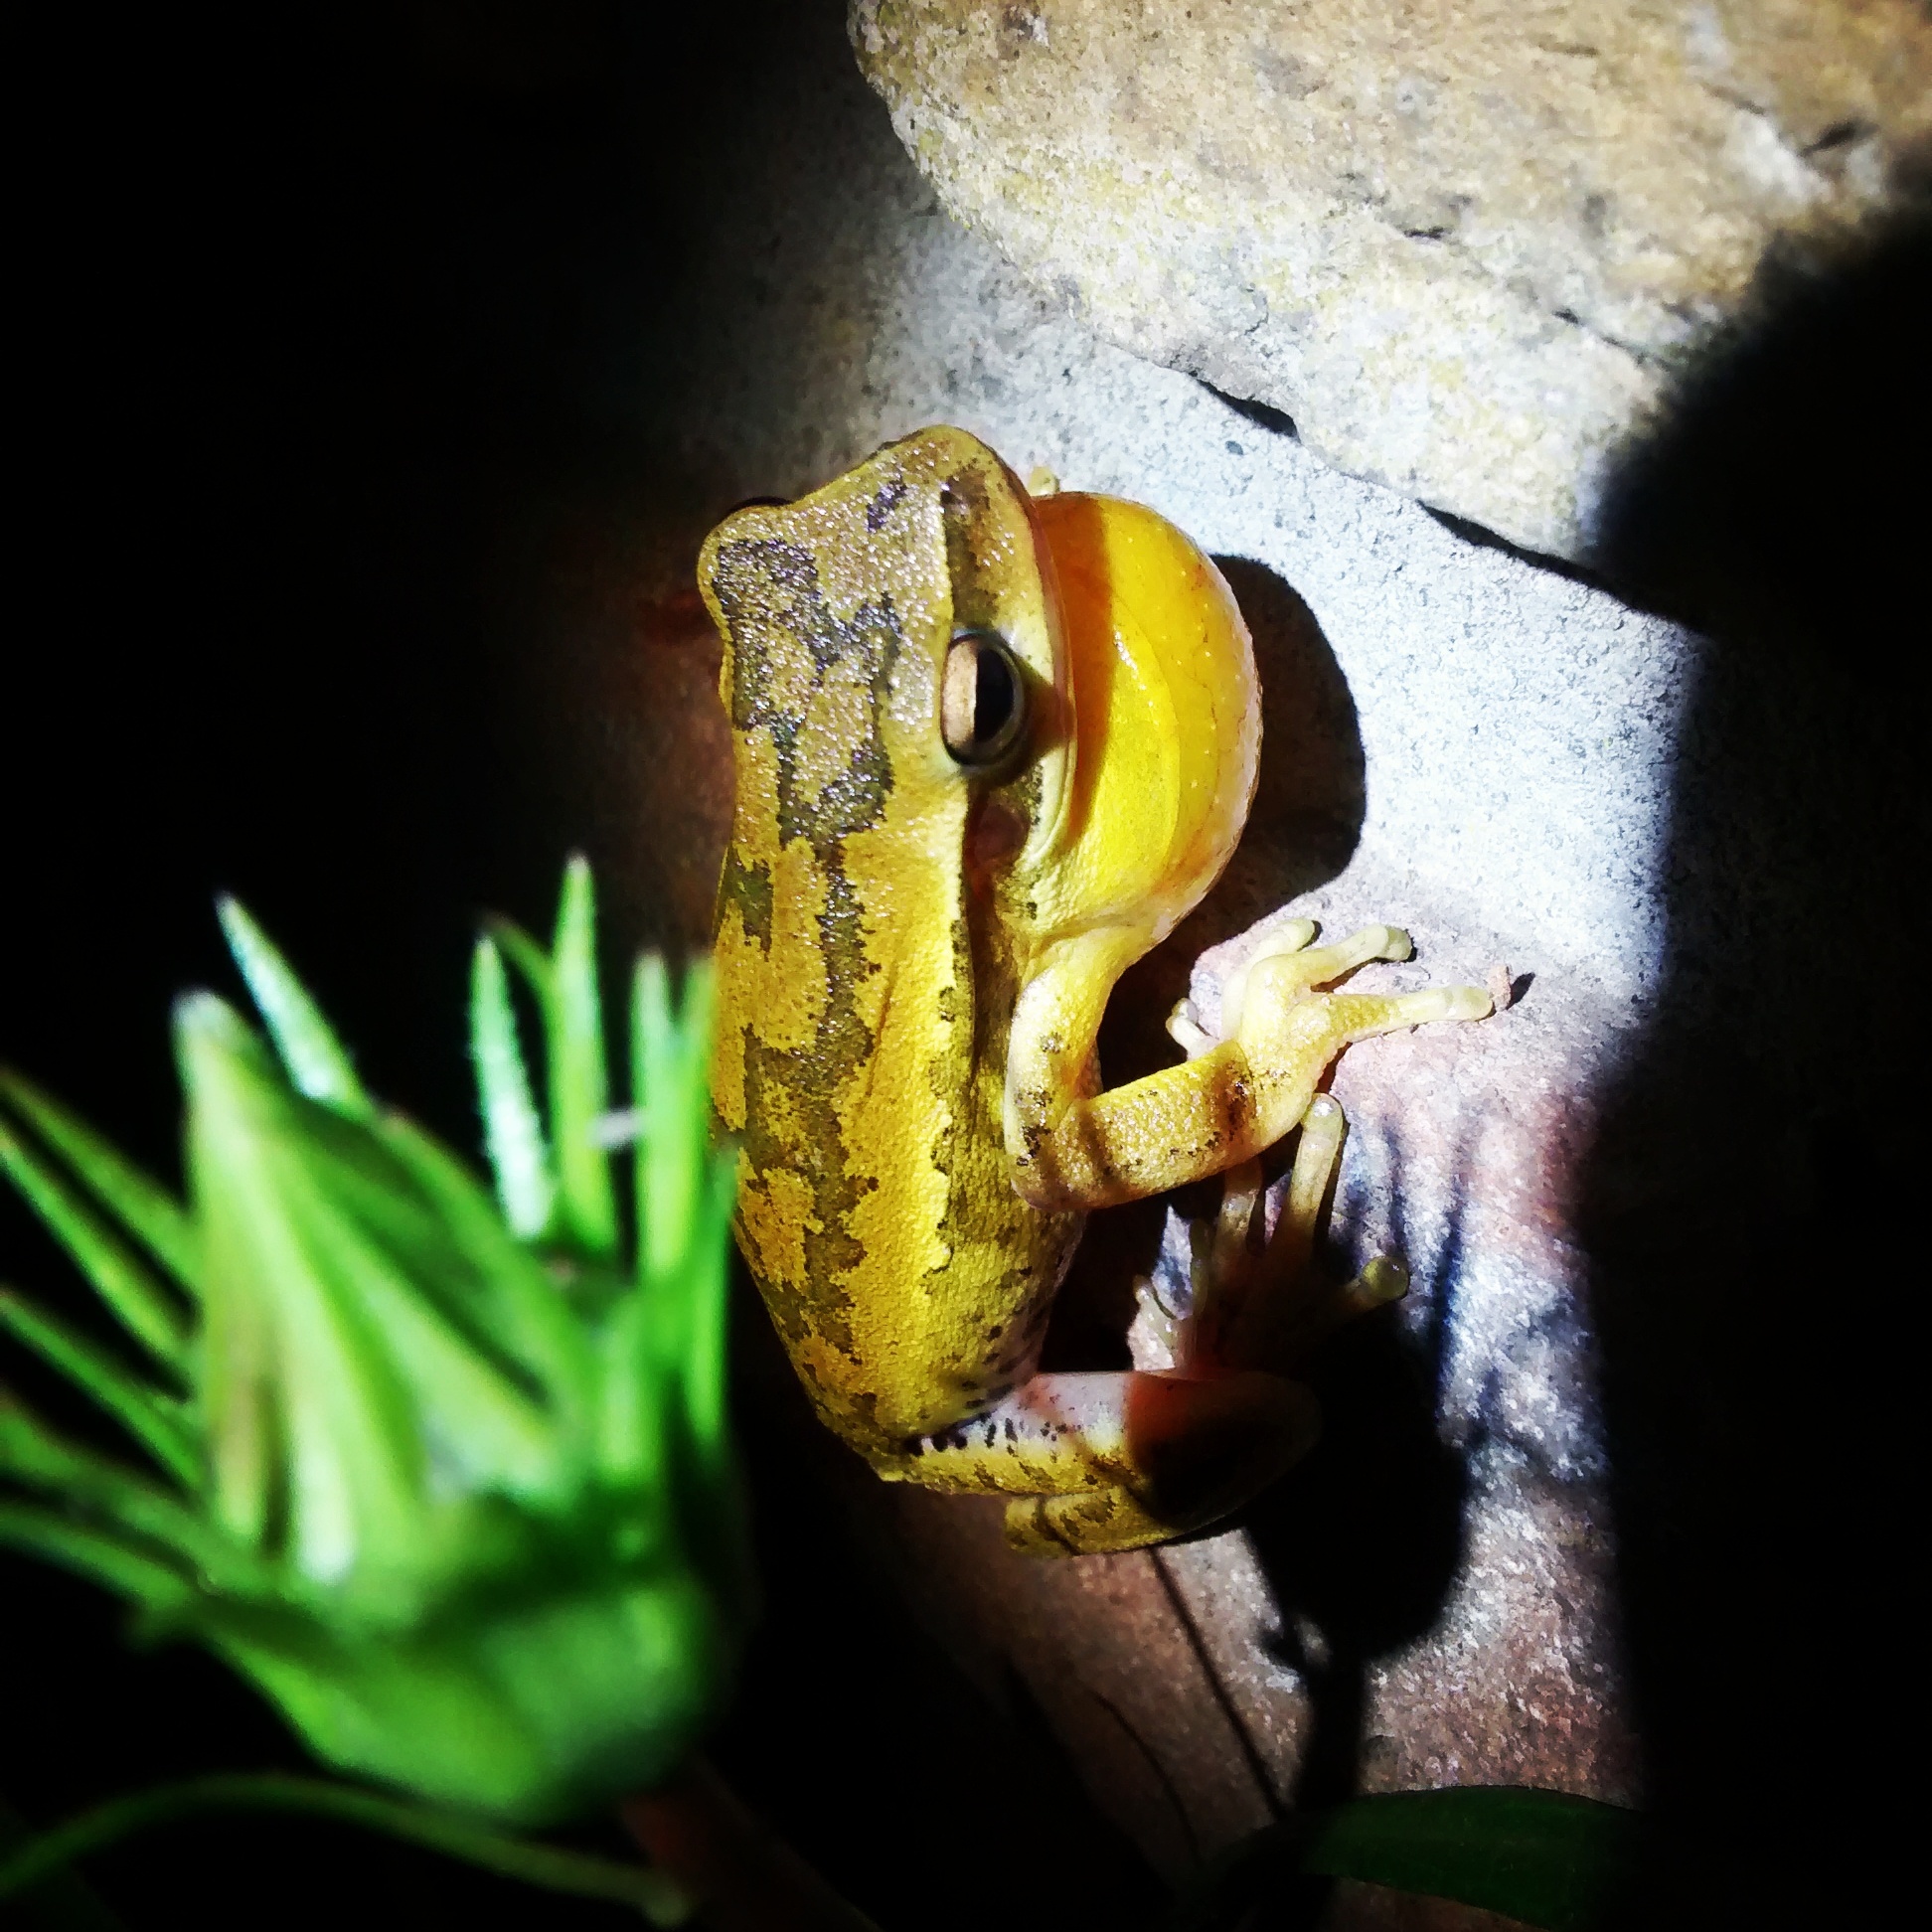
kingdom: Animalia
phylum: Chordata
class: Amphibia
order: Anura
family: Hylidae
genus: Boana
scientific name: Boana pulchella
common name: Montevideo treefrog
